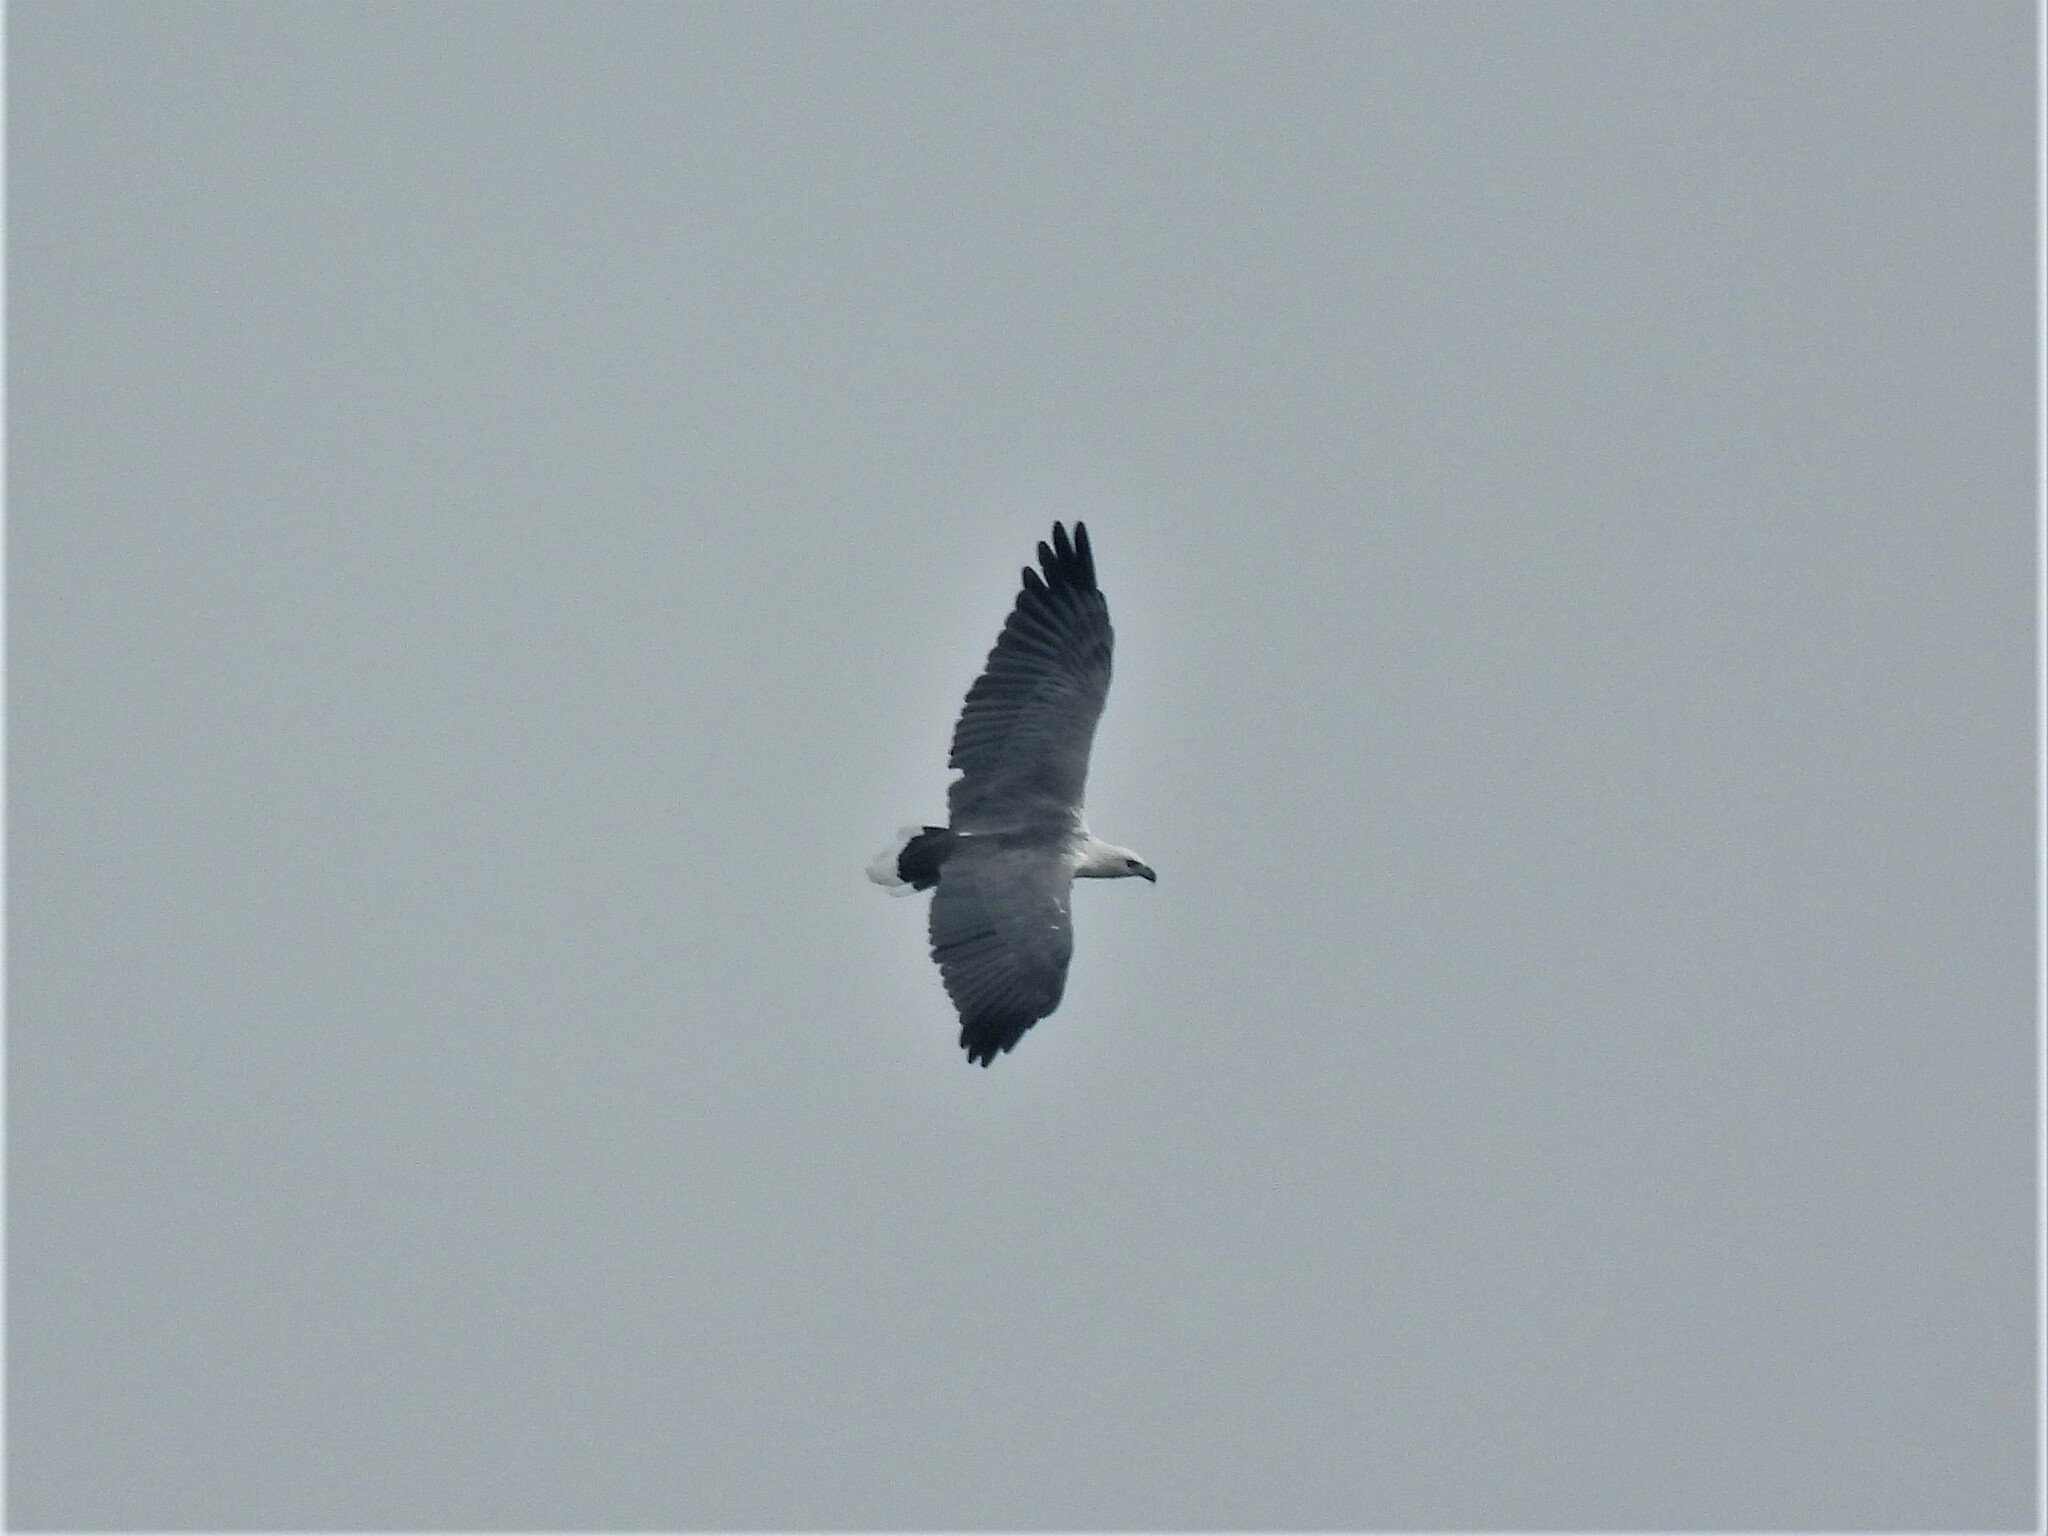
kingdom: Animalia
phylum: Chordata
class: Aves
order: Accipitriformes
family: Accipitridae
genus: Haliaeetus
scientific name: Haliaeetus leucogaster
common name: White-bellied sea eagle
